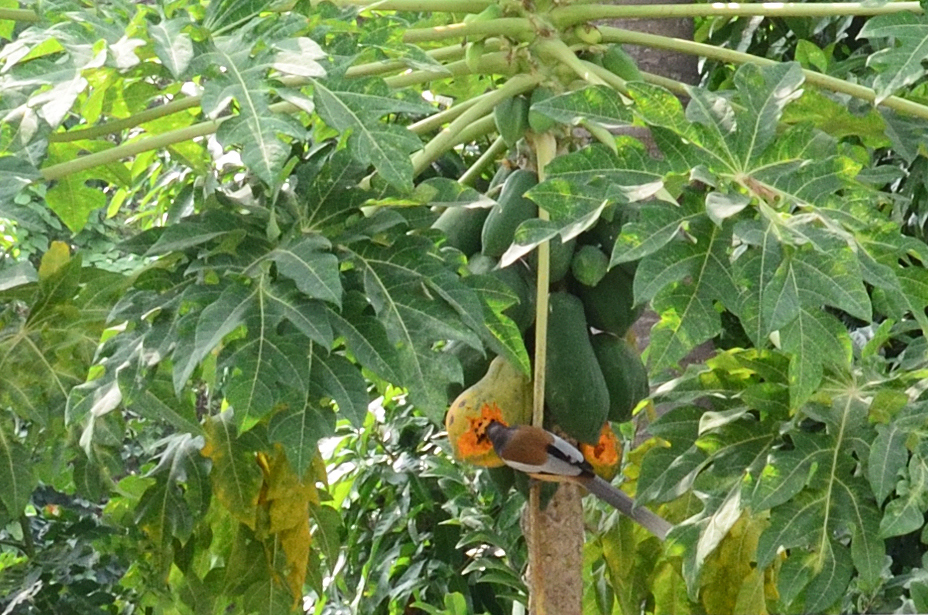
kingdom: Animalia
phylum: Chordata
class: Aves
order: Passeriformes
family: Corvidae
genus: Dendrocitta
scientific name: Dendrocitta vagabunda
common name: Rufous treepie
